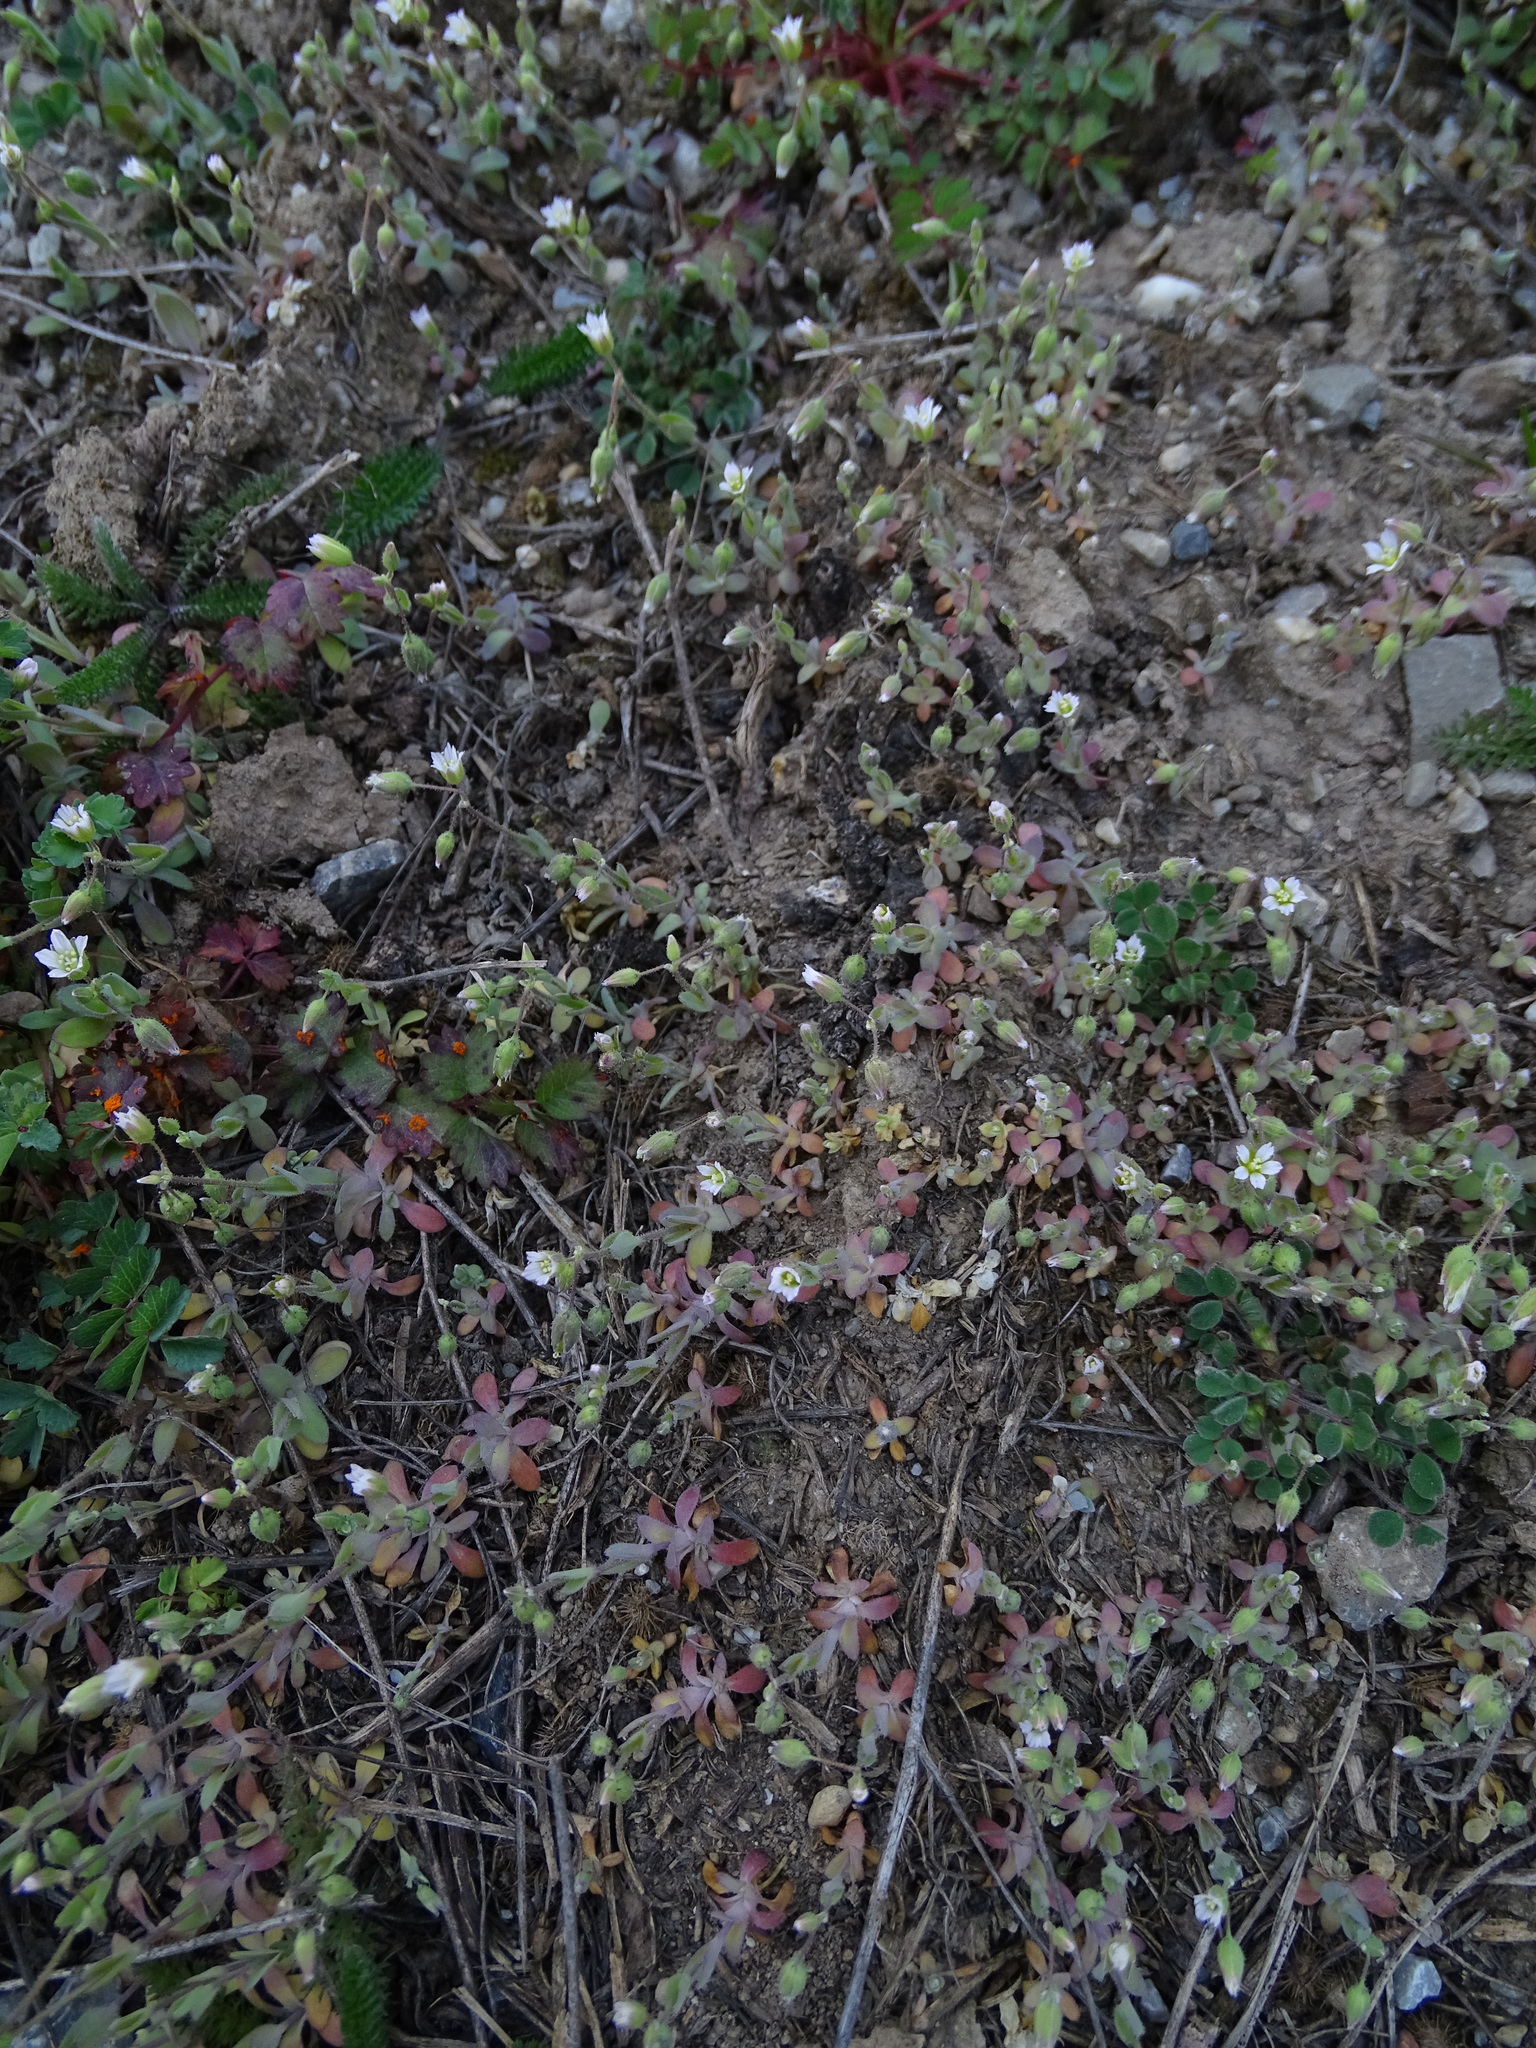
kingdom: Plantae
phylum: Tracheophyta
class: Magnoliopsida
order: Caryophyllales
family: Caryophyllaceae
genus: Holosteum
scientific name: Holosteum umbellatum
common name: Jagged chickweed
